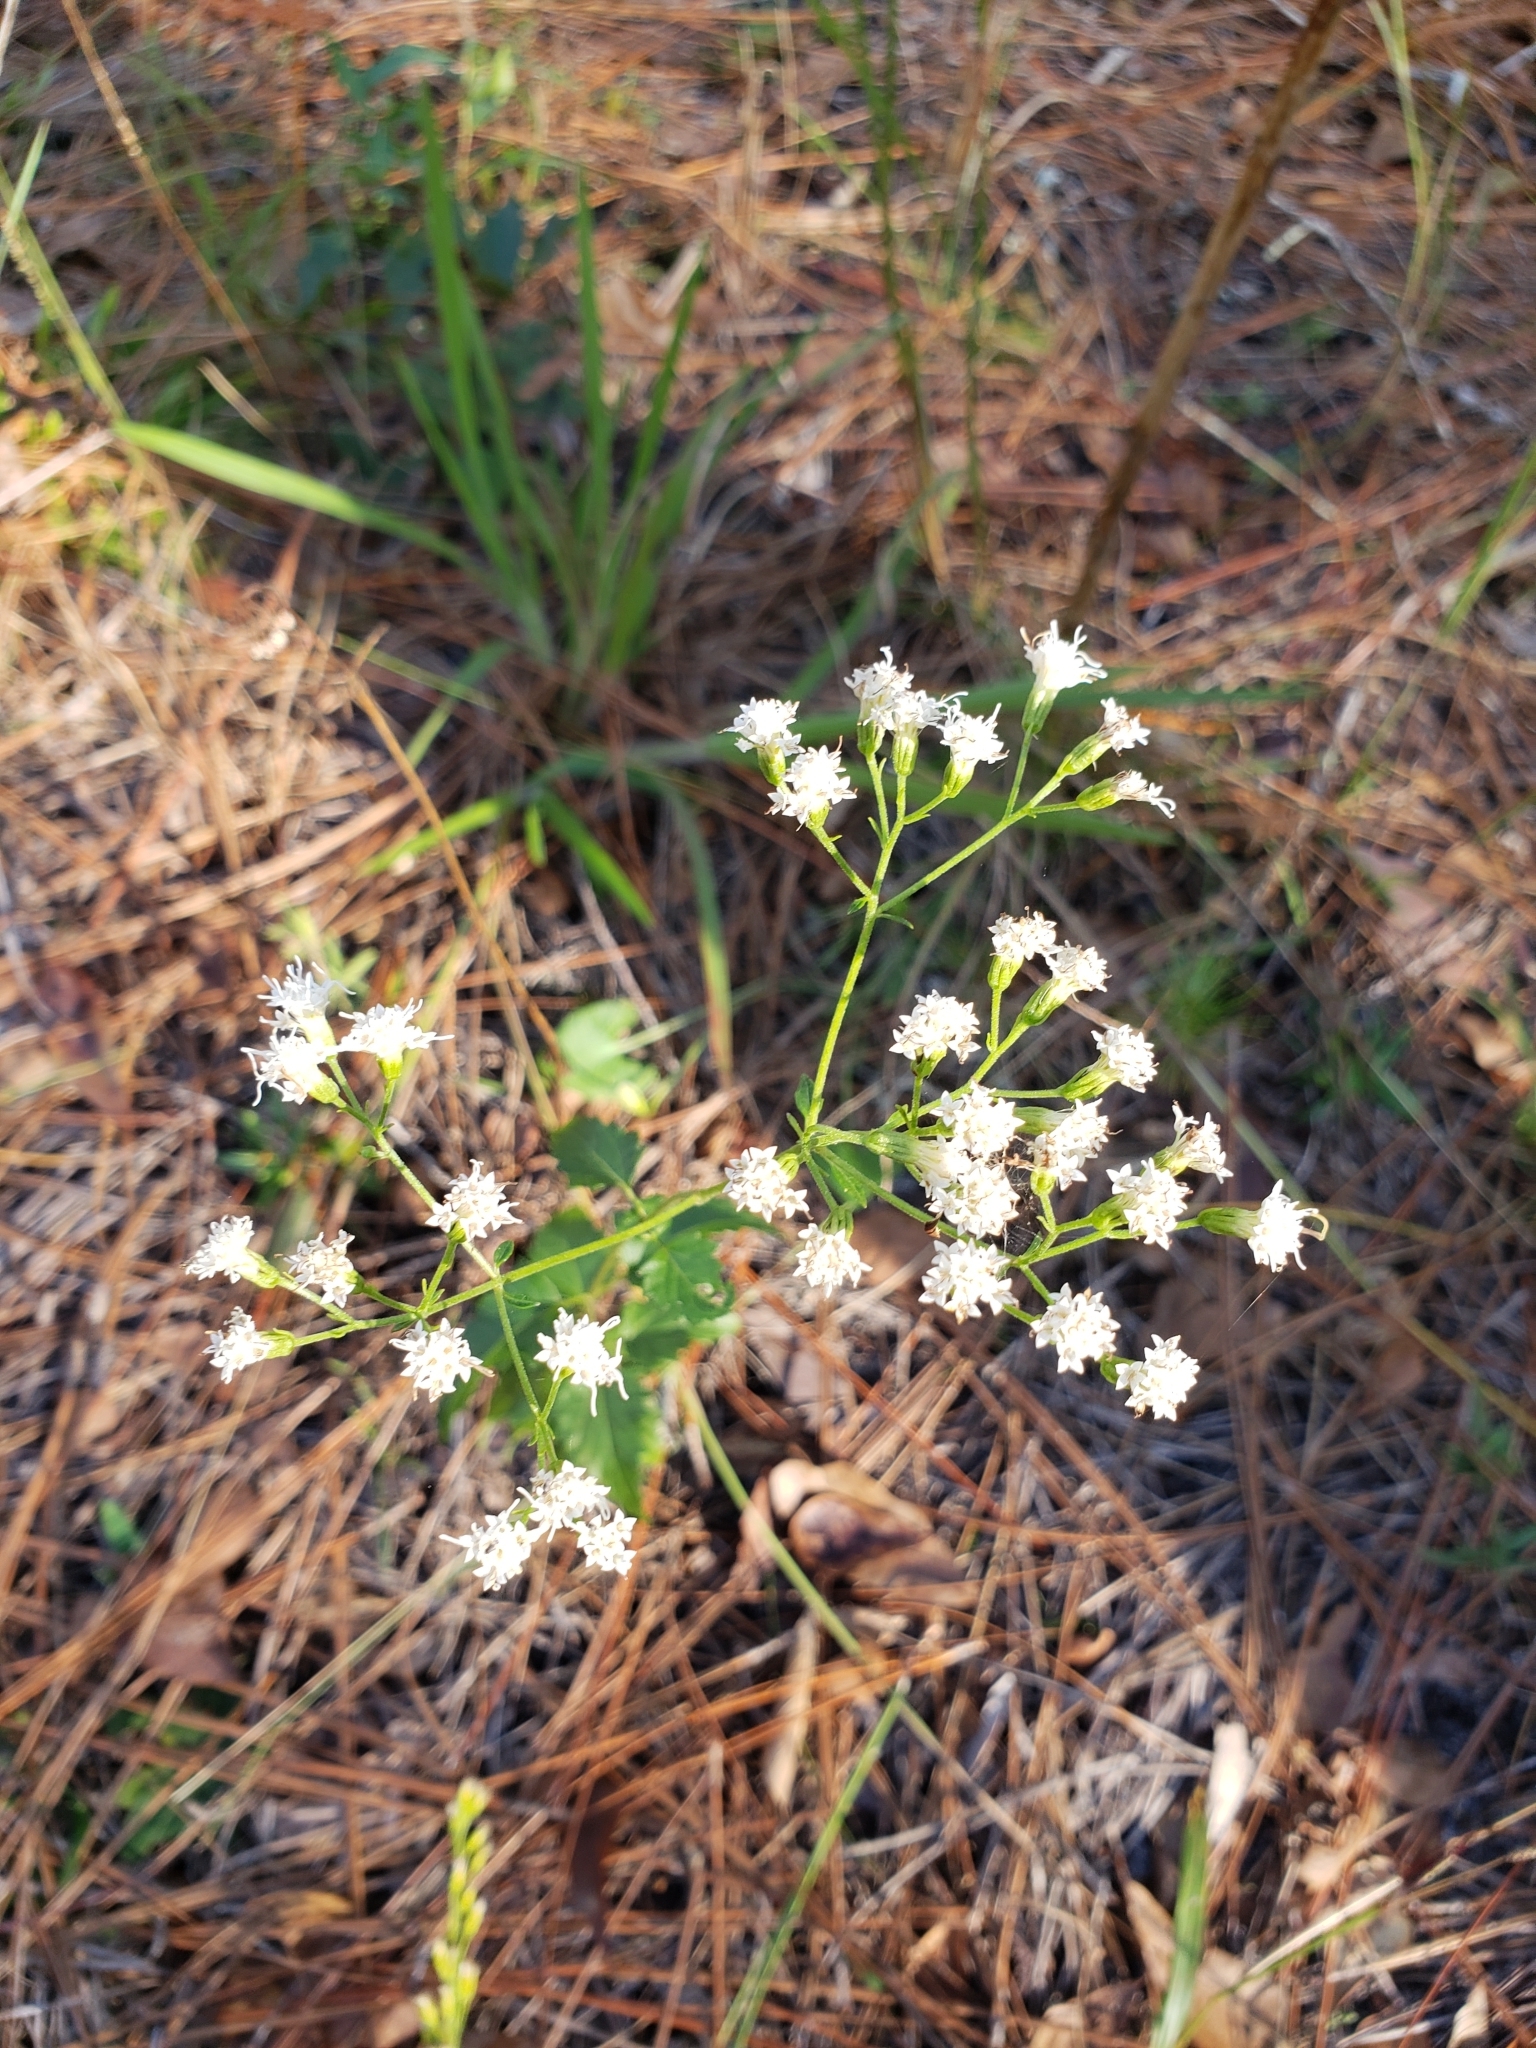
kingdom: Plantae
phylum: Tracheophyta
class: Magnoliopsida
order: Asterales
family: Asteraceae
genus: Ageratina
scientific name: Ageratina jucunda
